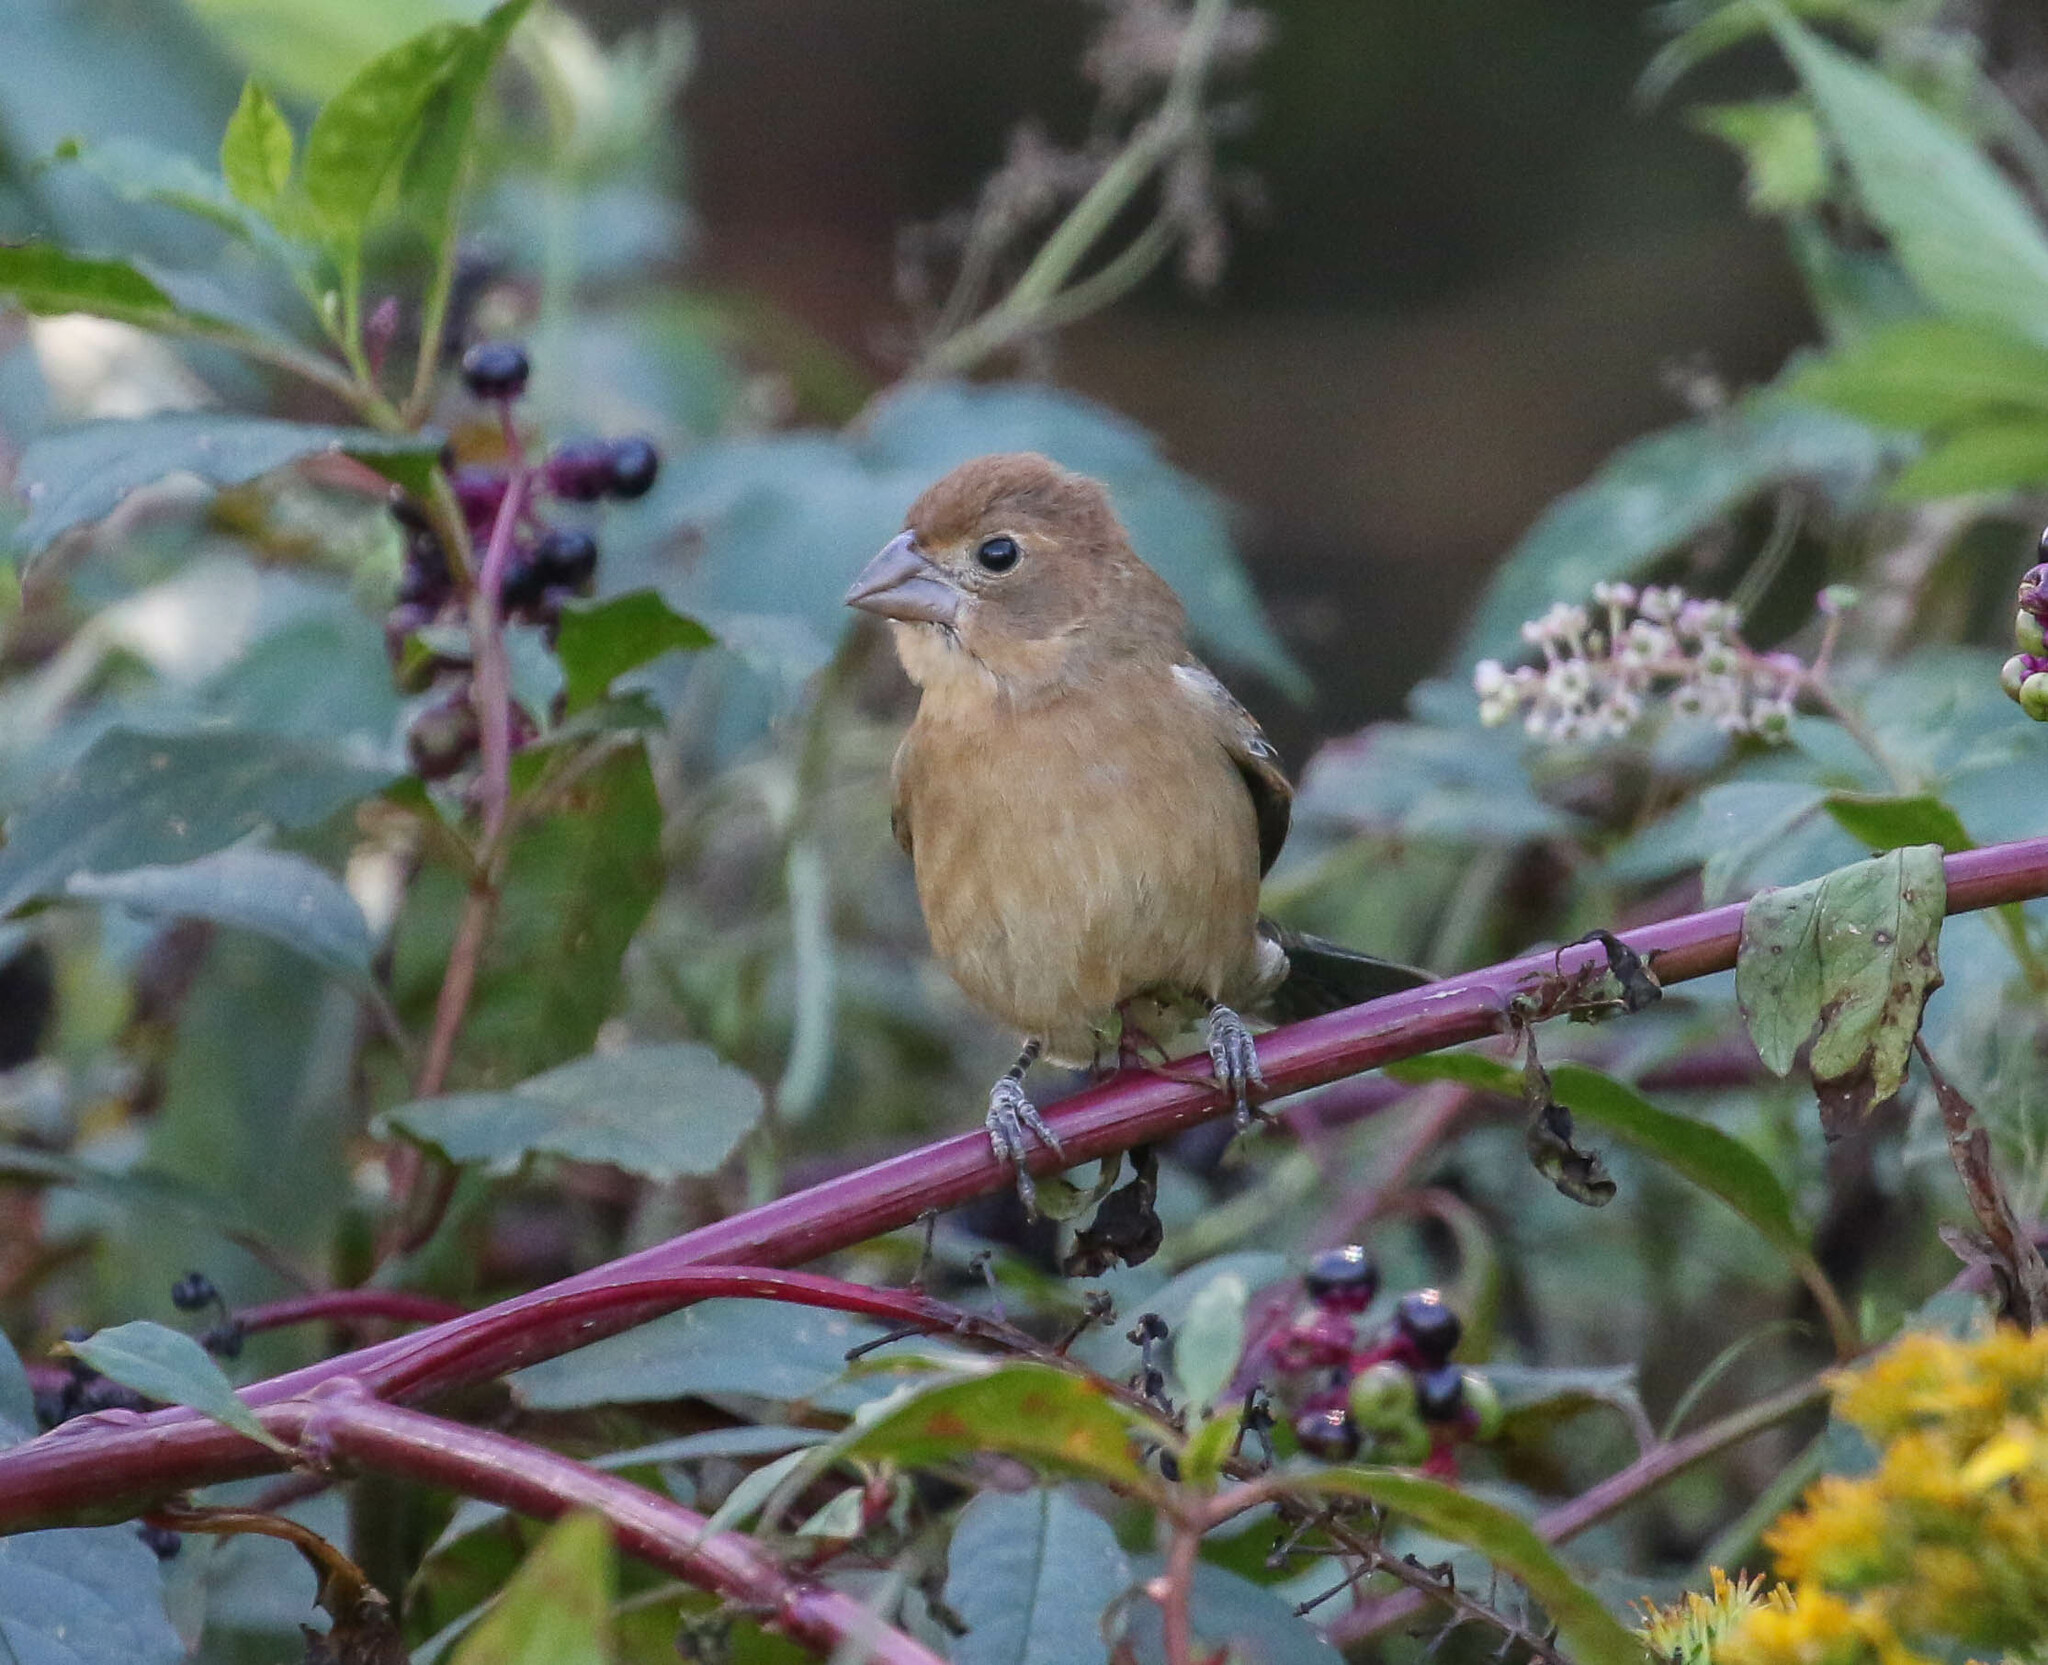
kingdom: Animalia
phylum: Chordata
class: Aves
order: Passeriformes
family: Cardinalidae
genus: Passerina
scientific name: Passerina caerulea
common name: Blue grosbeak
